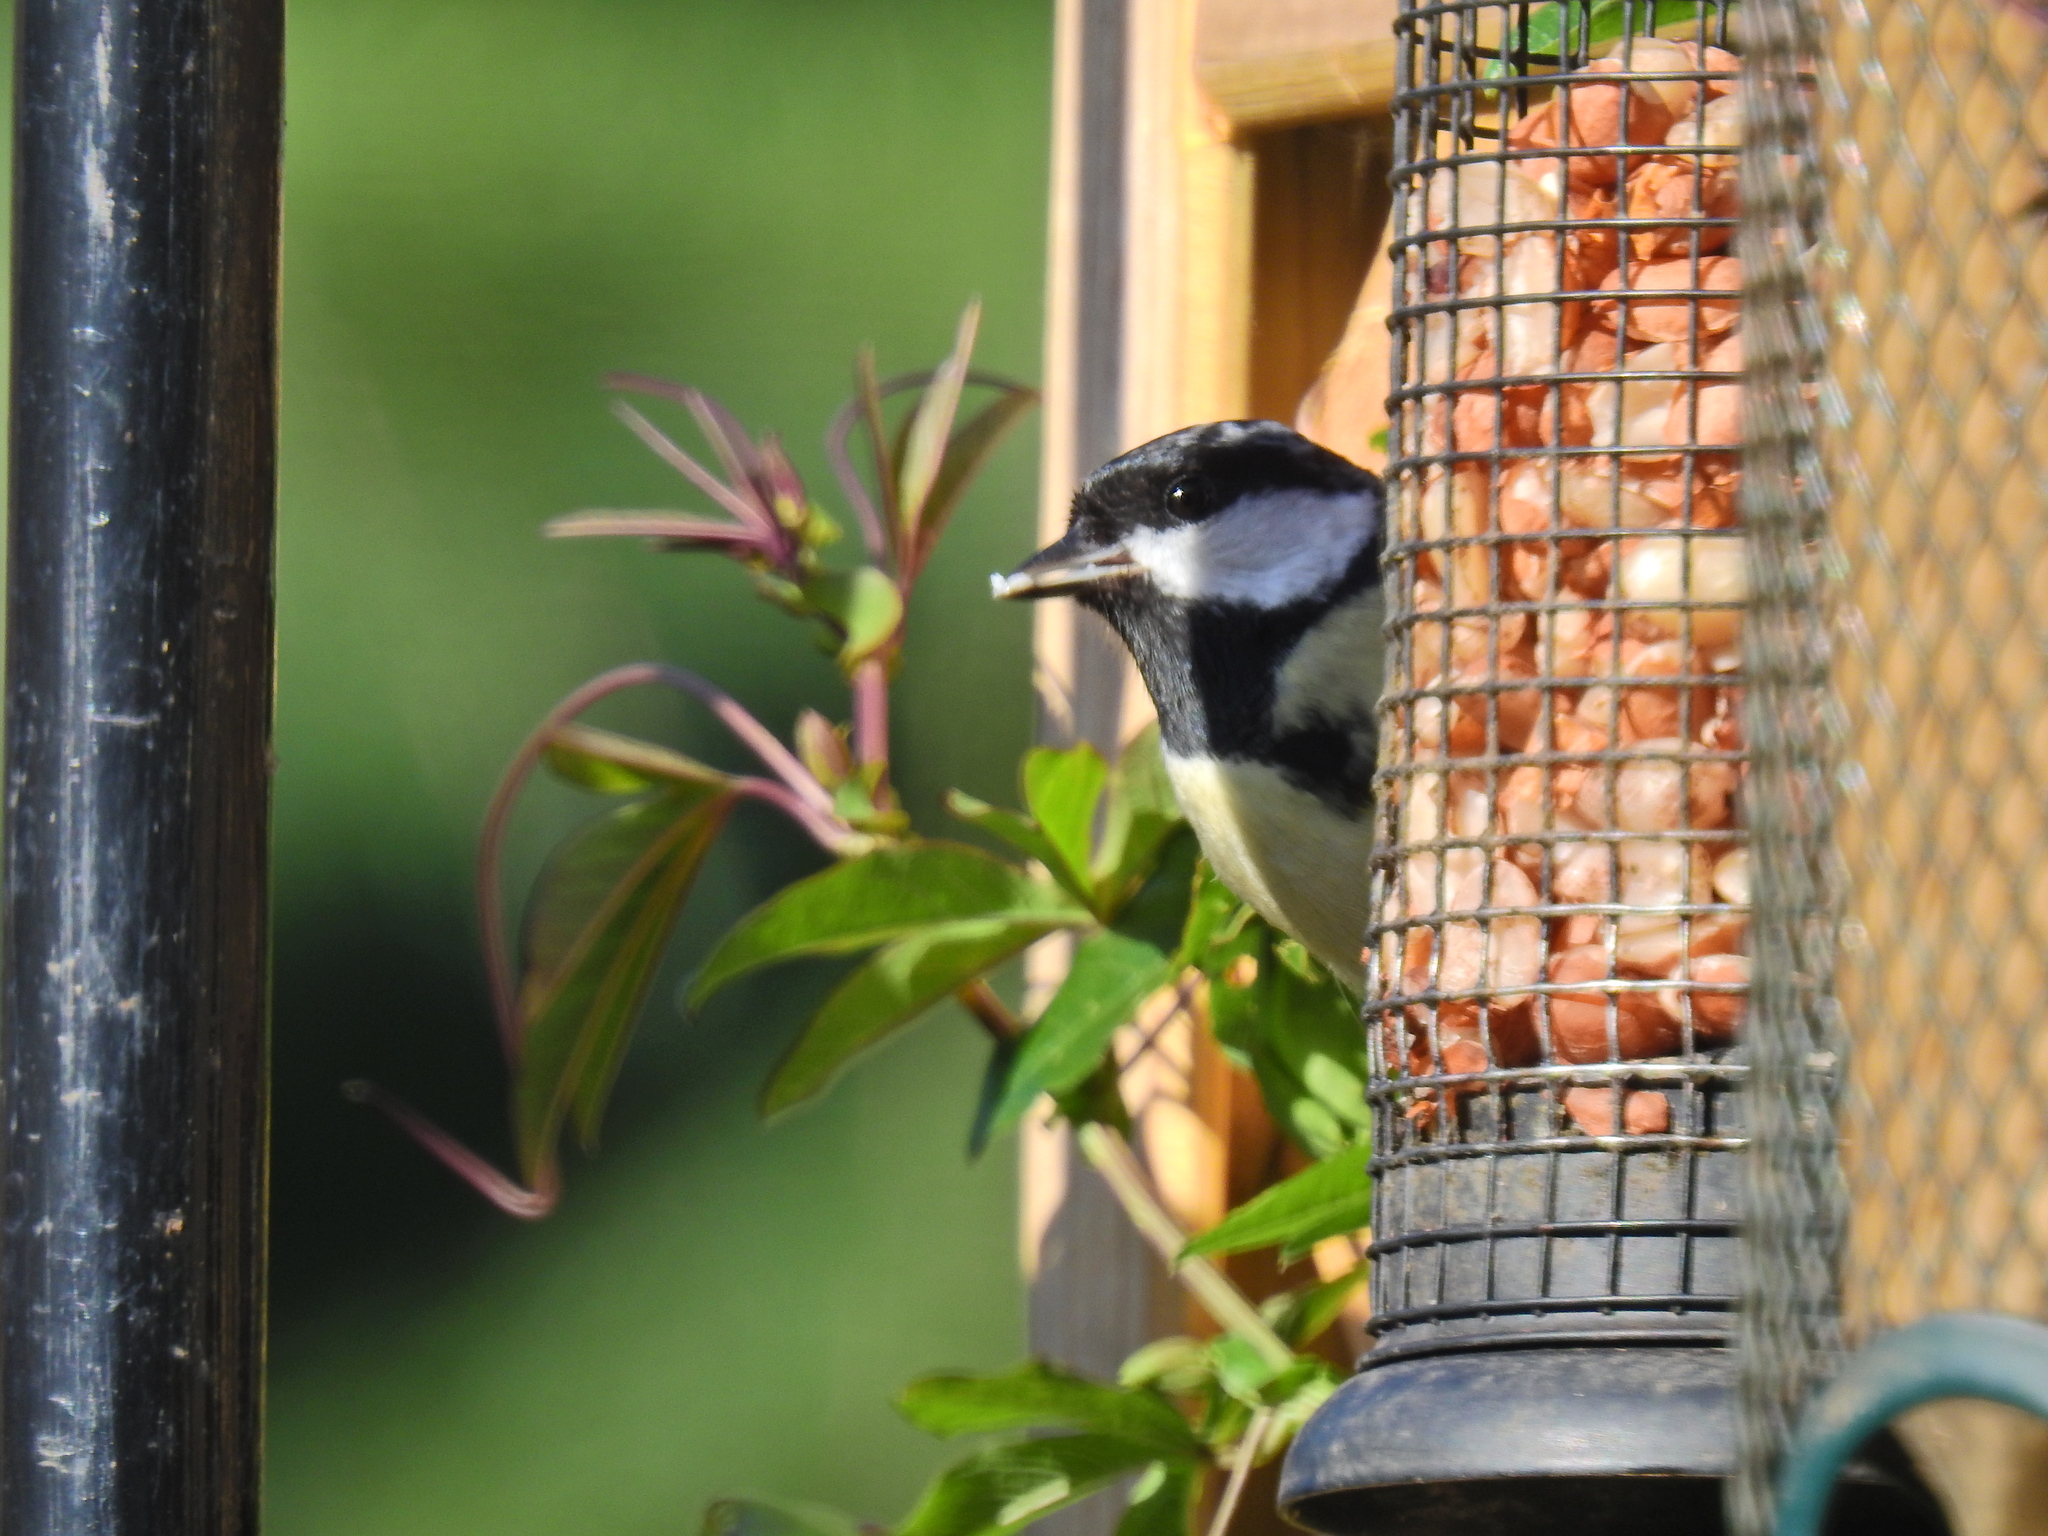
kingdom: Animalia
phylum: Chordata
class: Aves
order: Passeriformes
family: Paridae
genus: Parus
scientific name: Parus major
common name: Great tit
